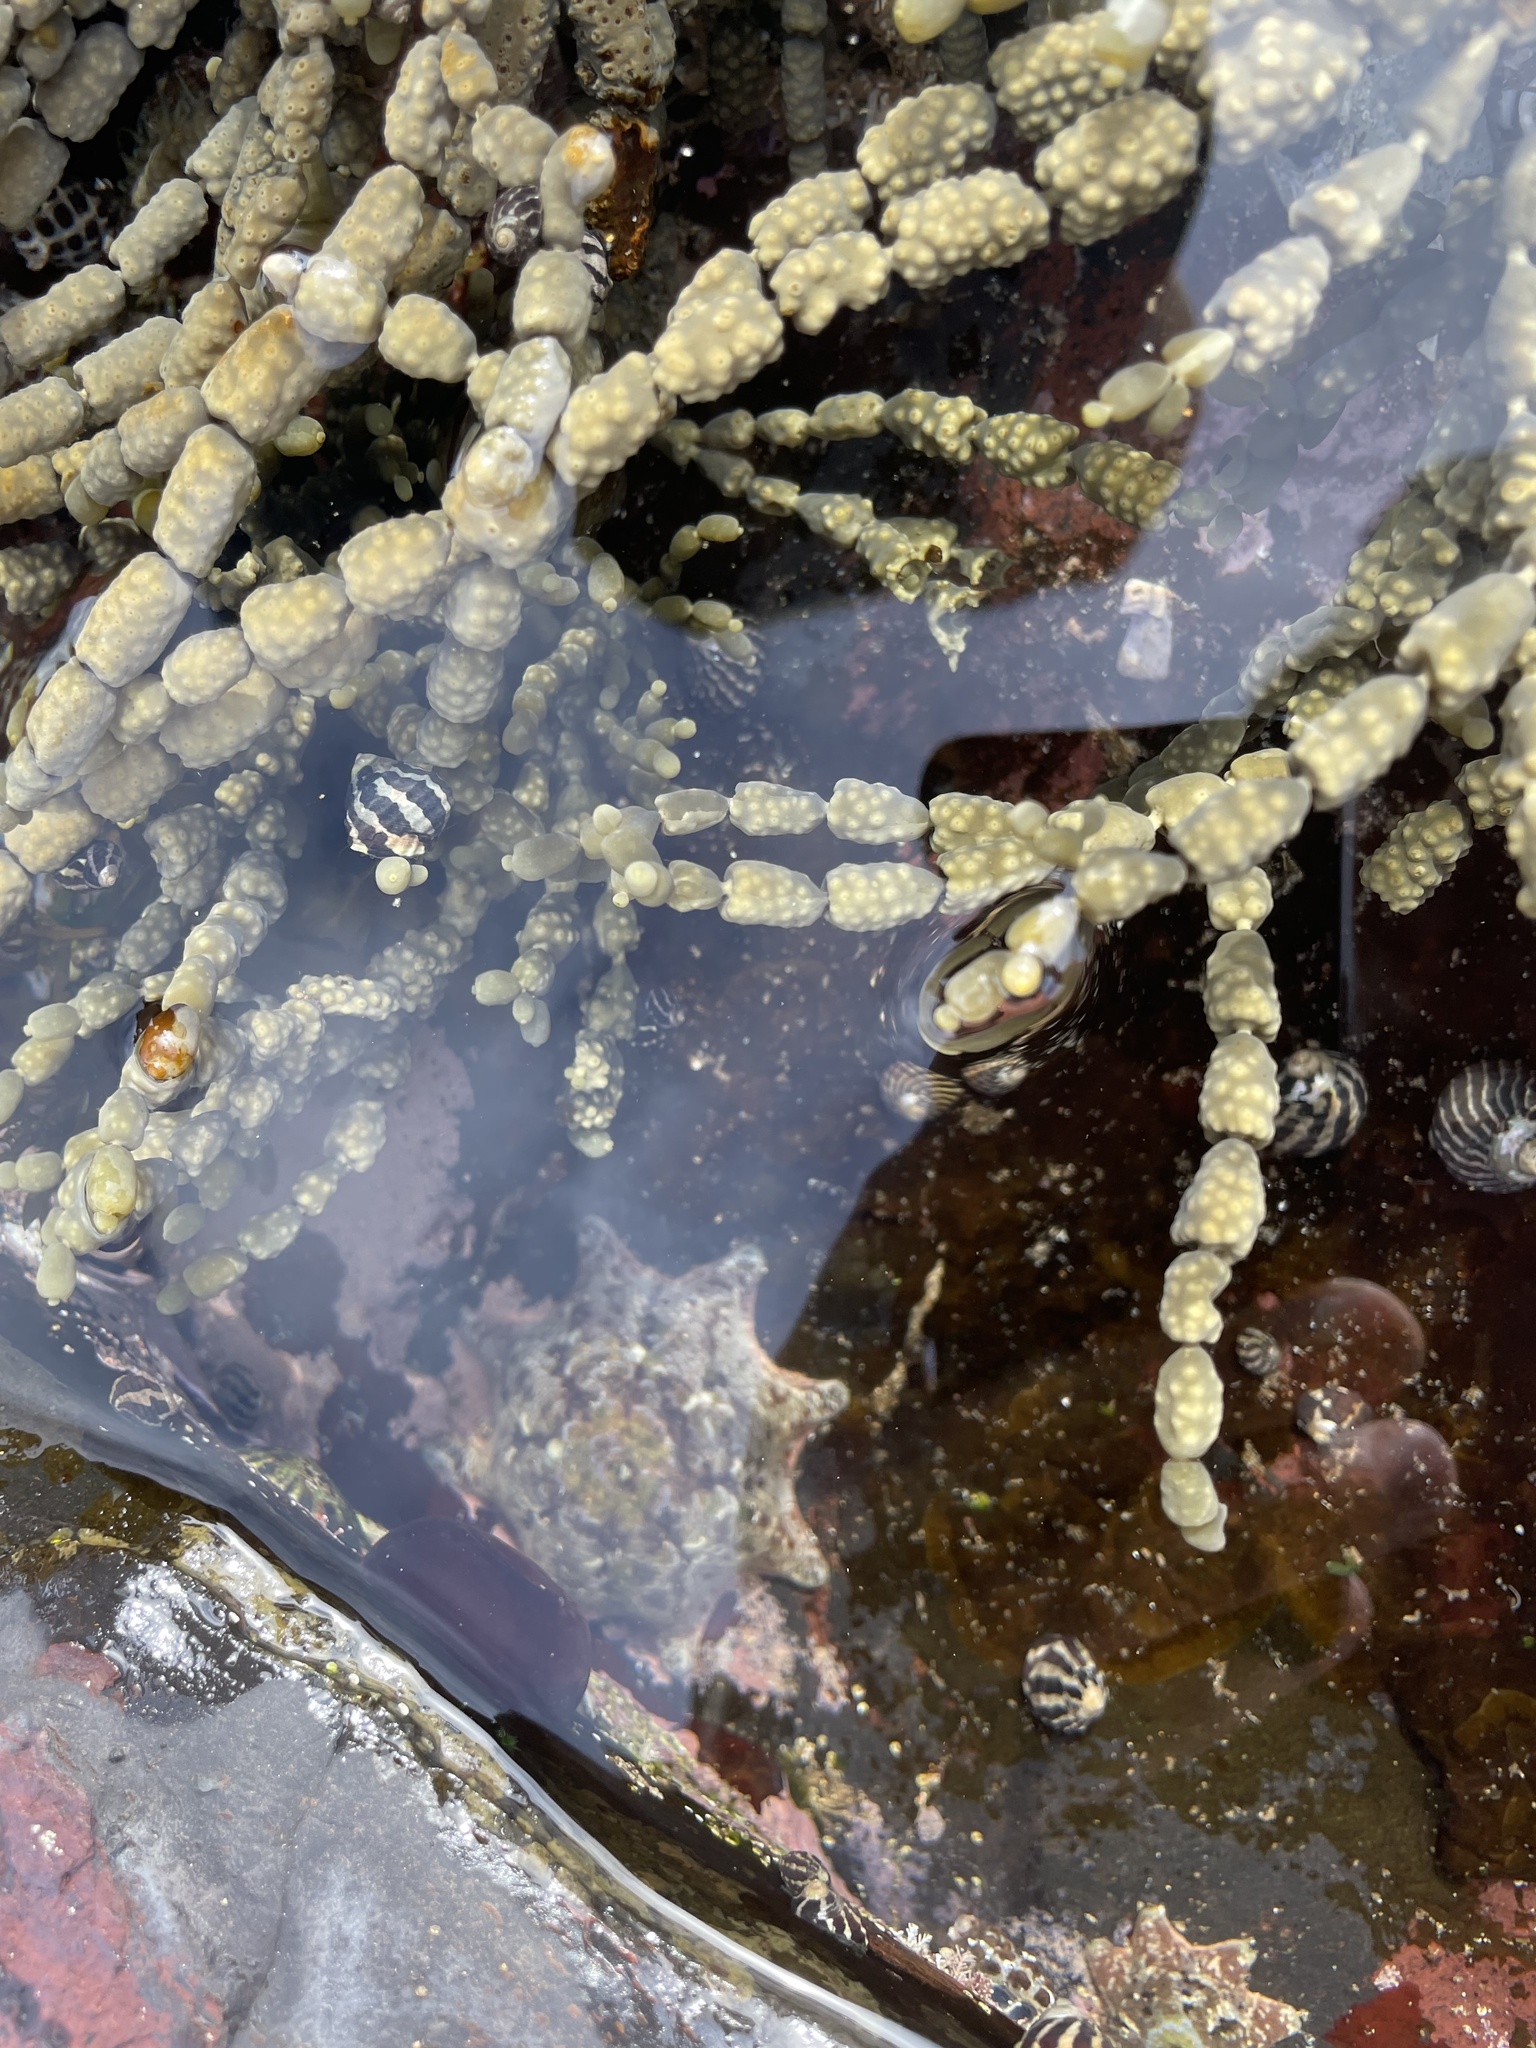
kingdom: Animalia
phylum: Echinodermata
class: Asteroidea
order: Valvatida
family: Asterinidae
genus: Meridiastra
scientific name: Meridiastra calcar
